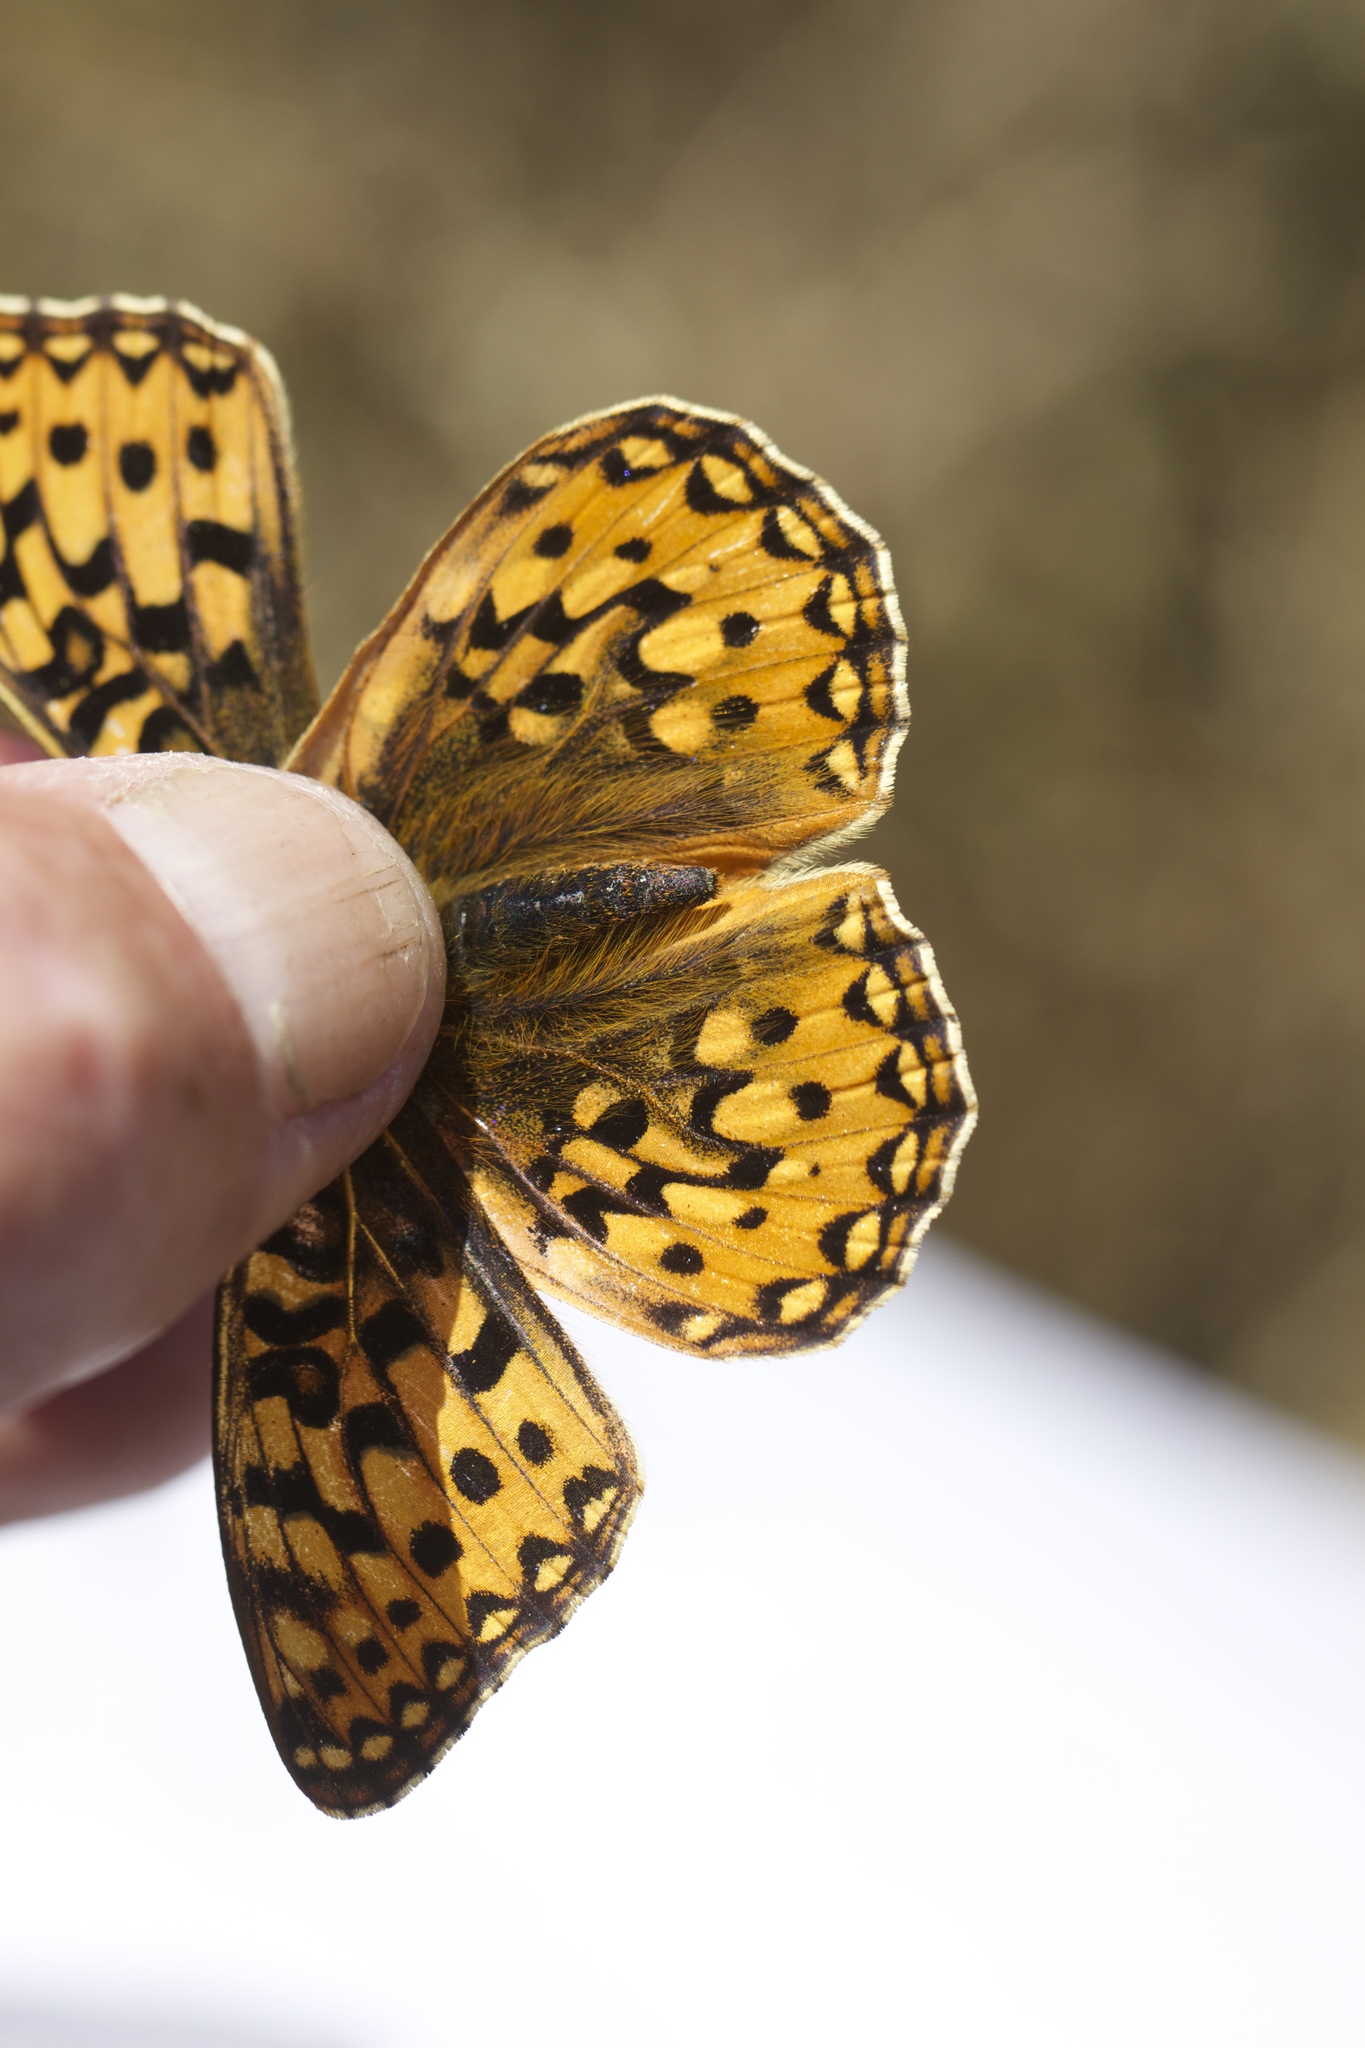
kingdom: Animalia
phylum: Arthropoda
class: Insecta
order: Lepidoptera
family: Nymphalidae
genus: Speyeria
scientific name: Speyeria zerene
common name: Zerene fritillary
